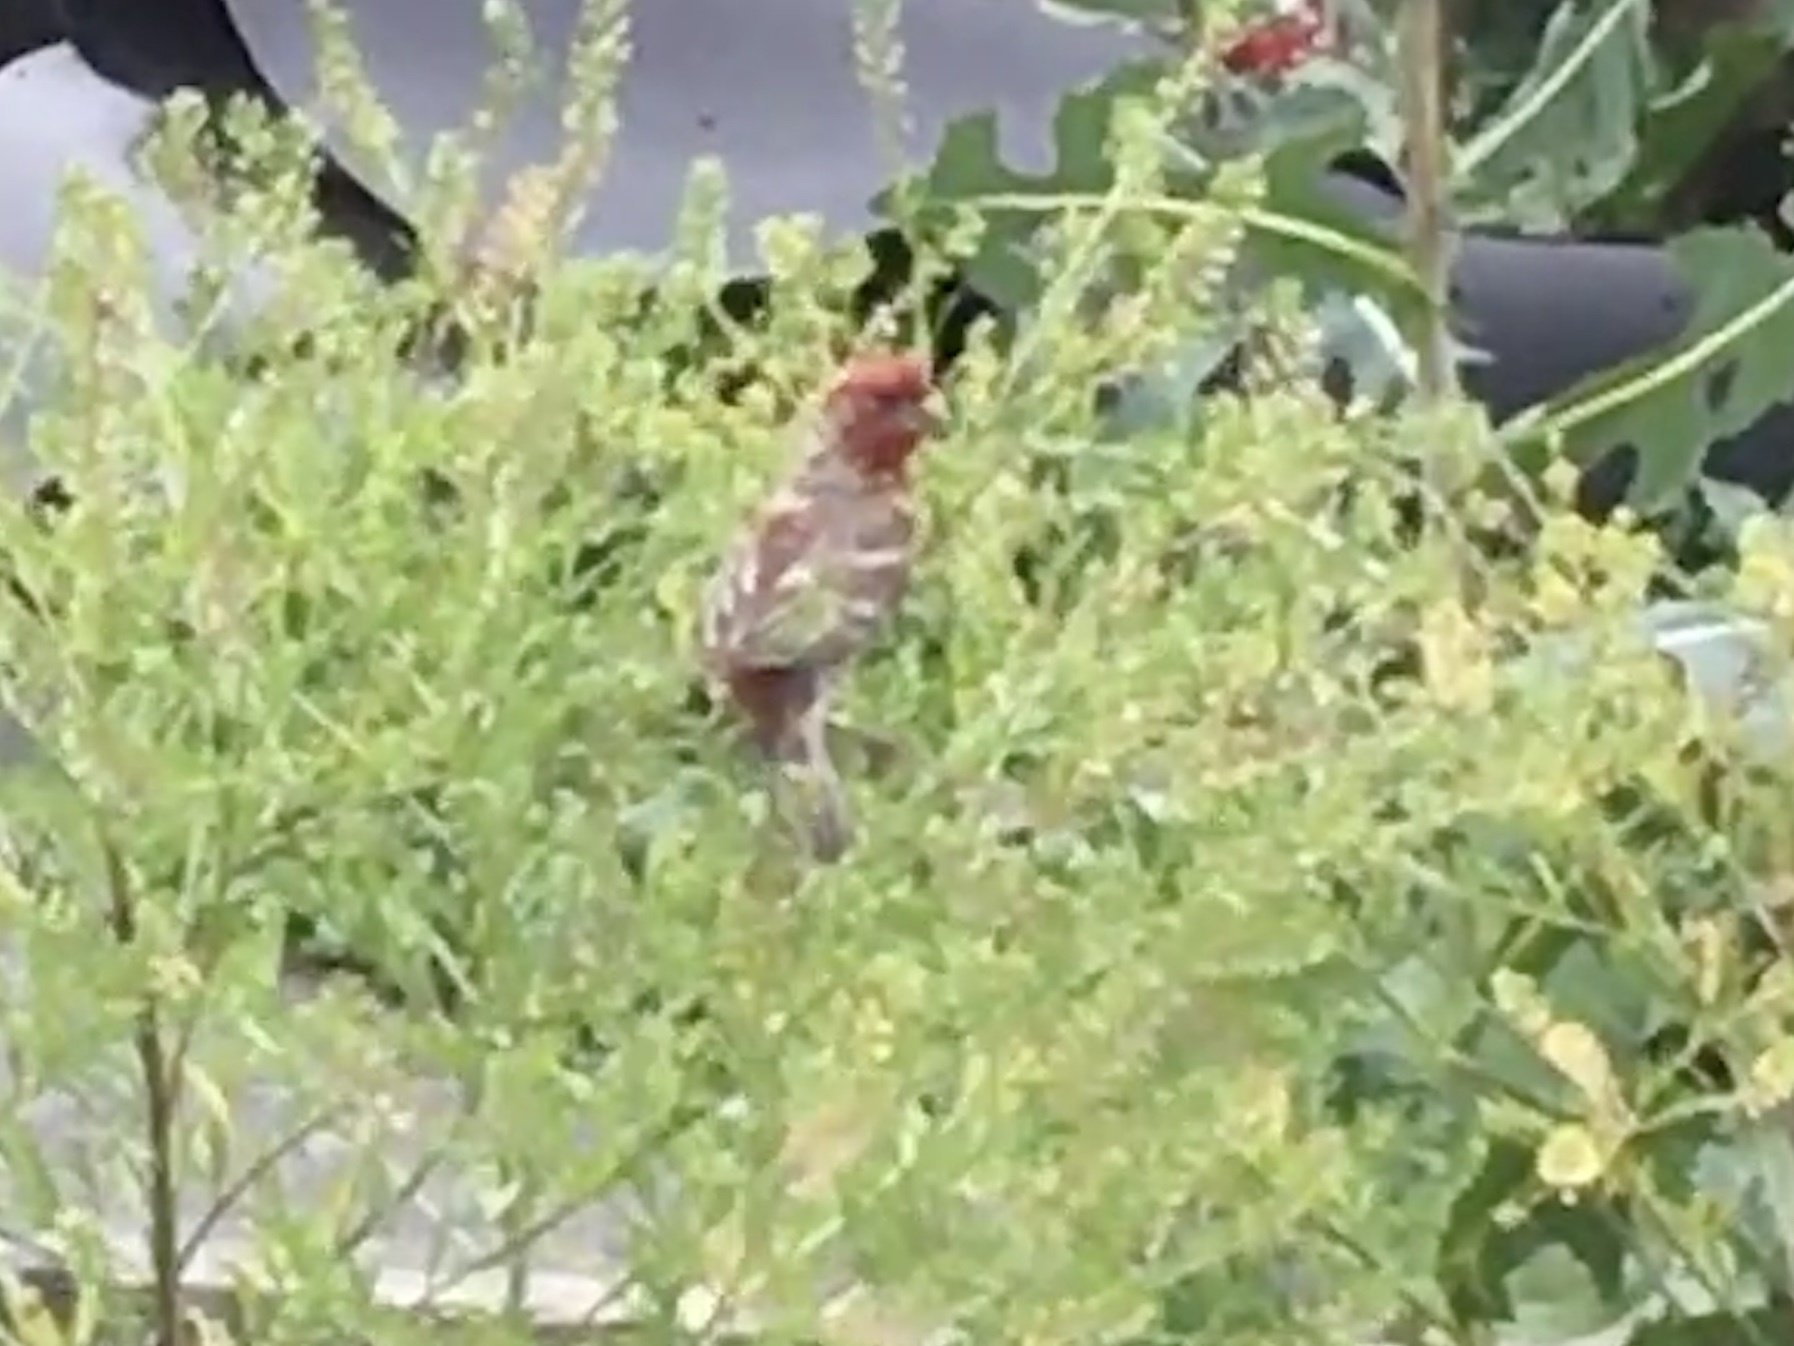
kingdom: Animalia
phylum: Chordata
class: Aves
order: Passeriformes
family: Fringillidae
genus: Haemorhous
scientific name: Haemorhous mexicanus
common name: House finch
